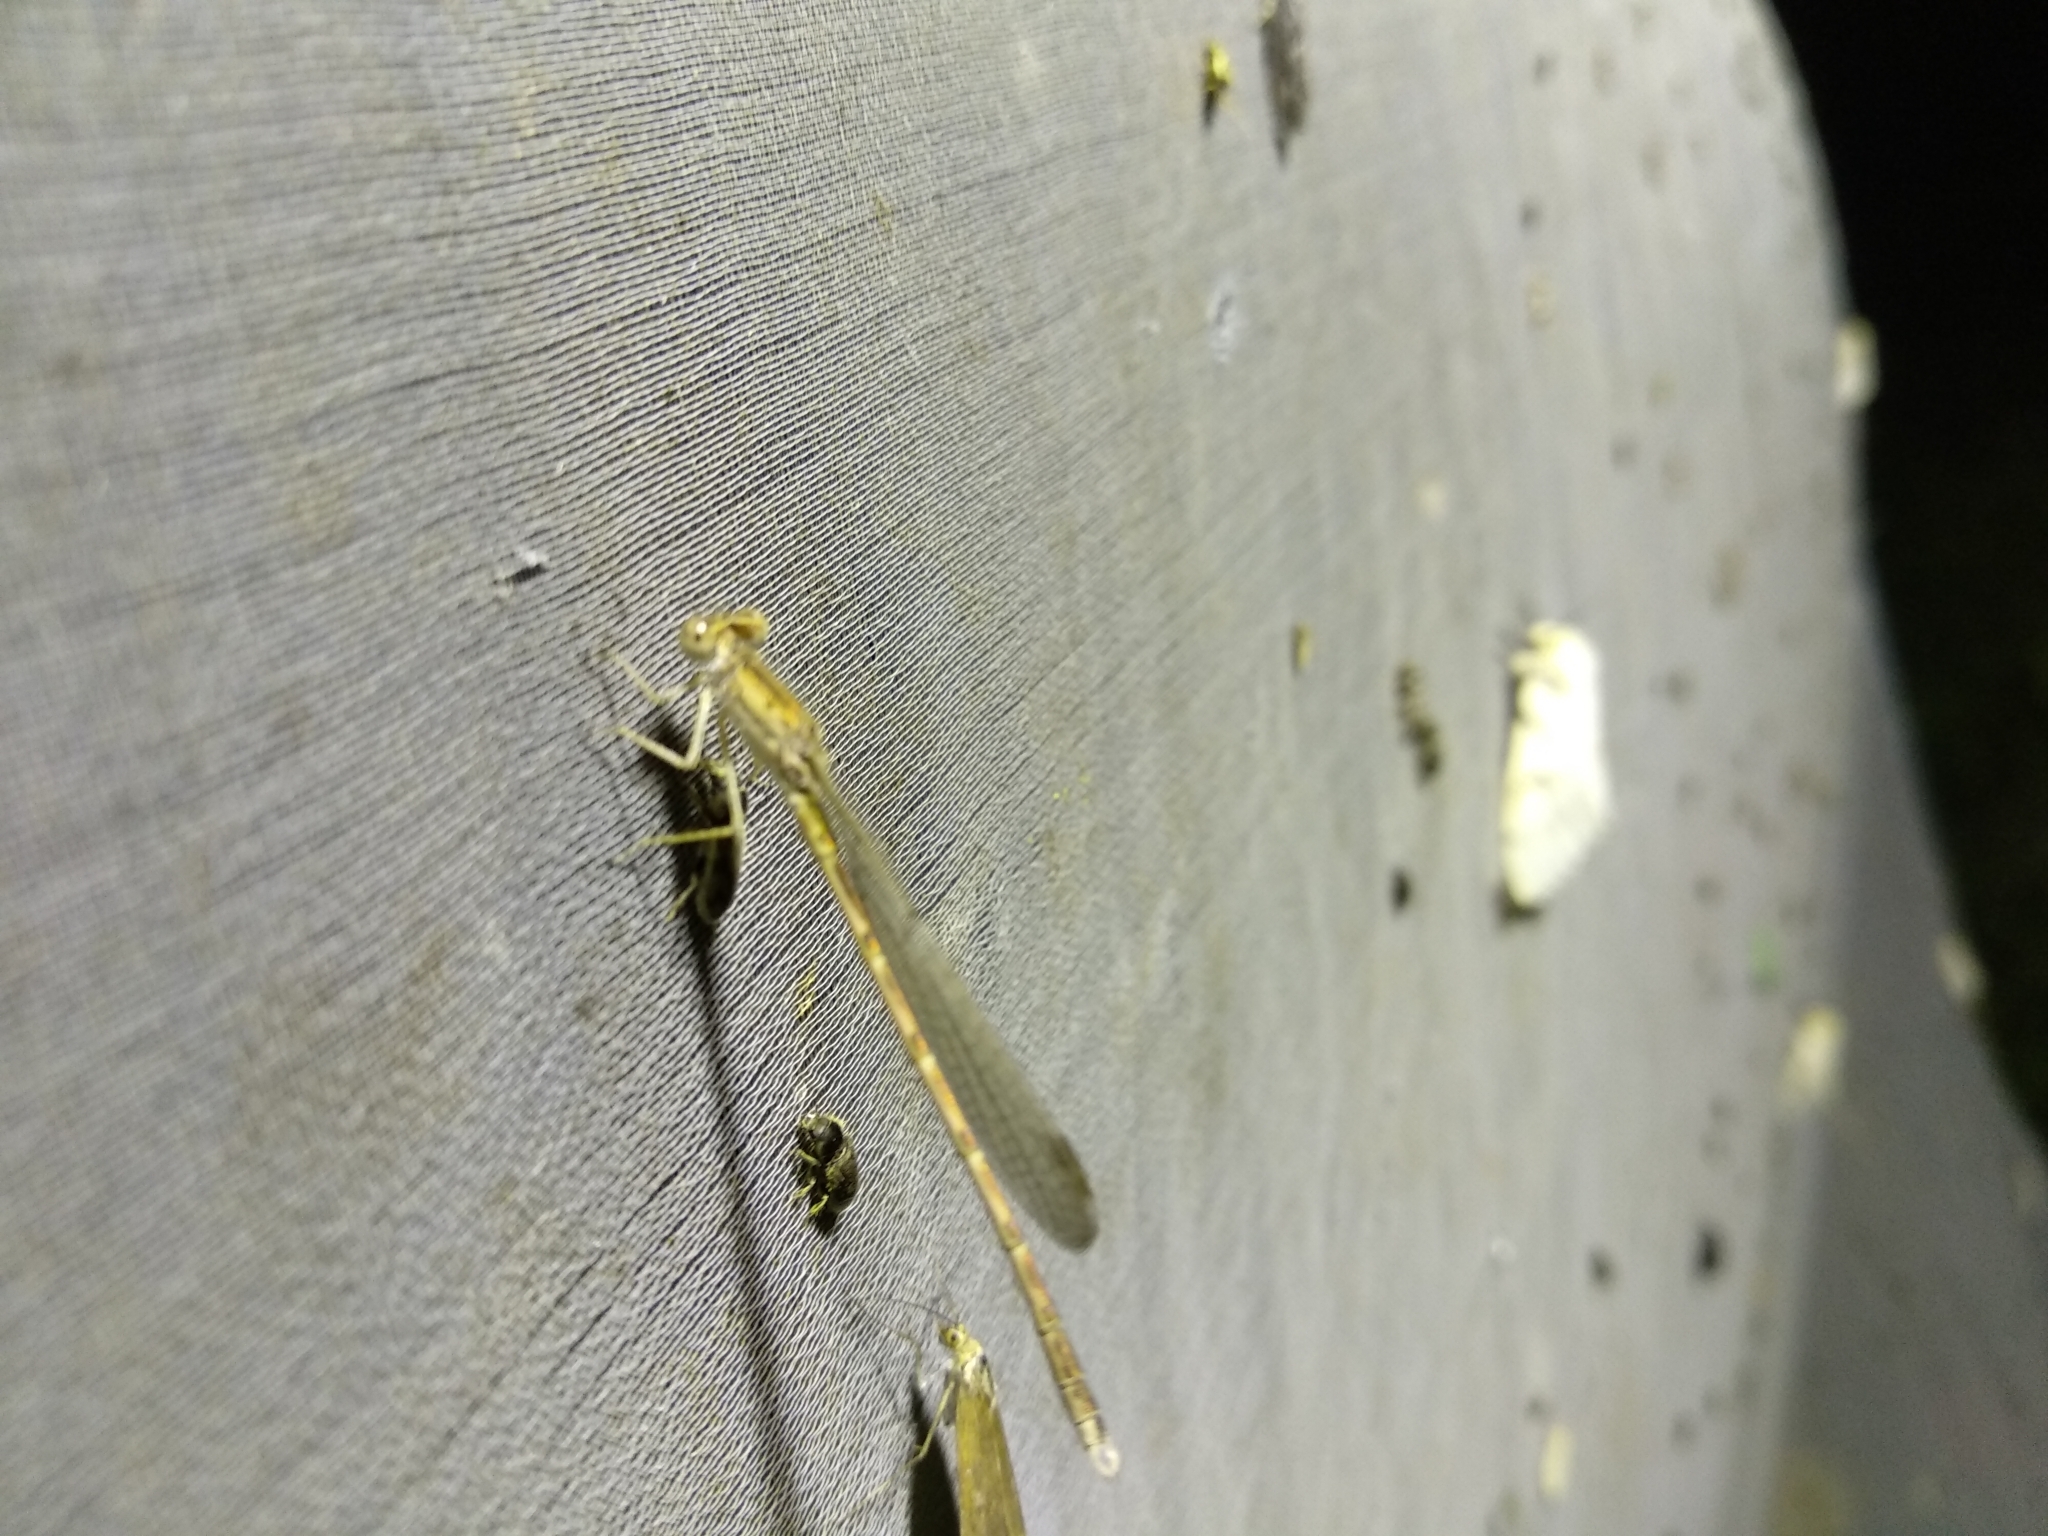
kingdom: Animalia
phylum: Arthropoda
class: Insecta
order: Odonata
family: Lestidae
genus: Sympecma
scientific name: Sympecma paedisca
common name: Siberian winter damsel
